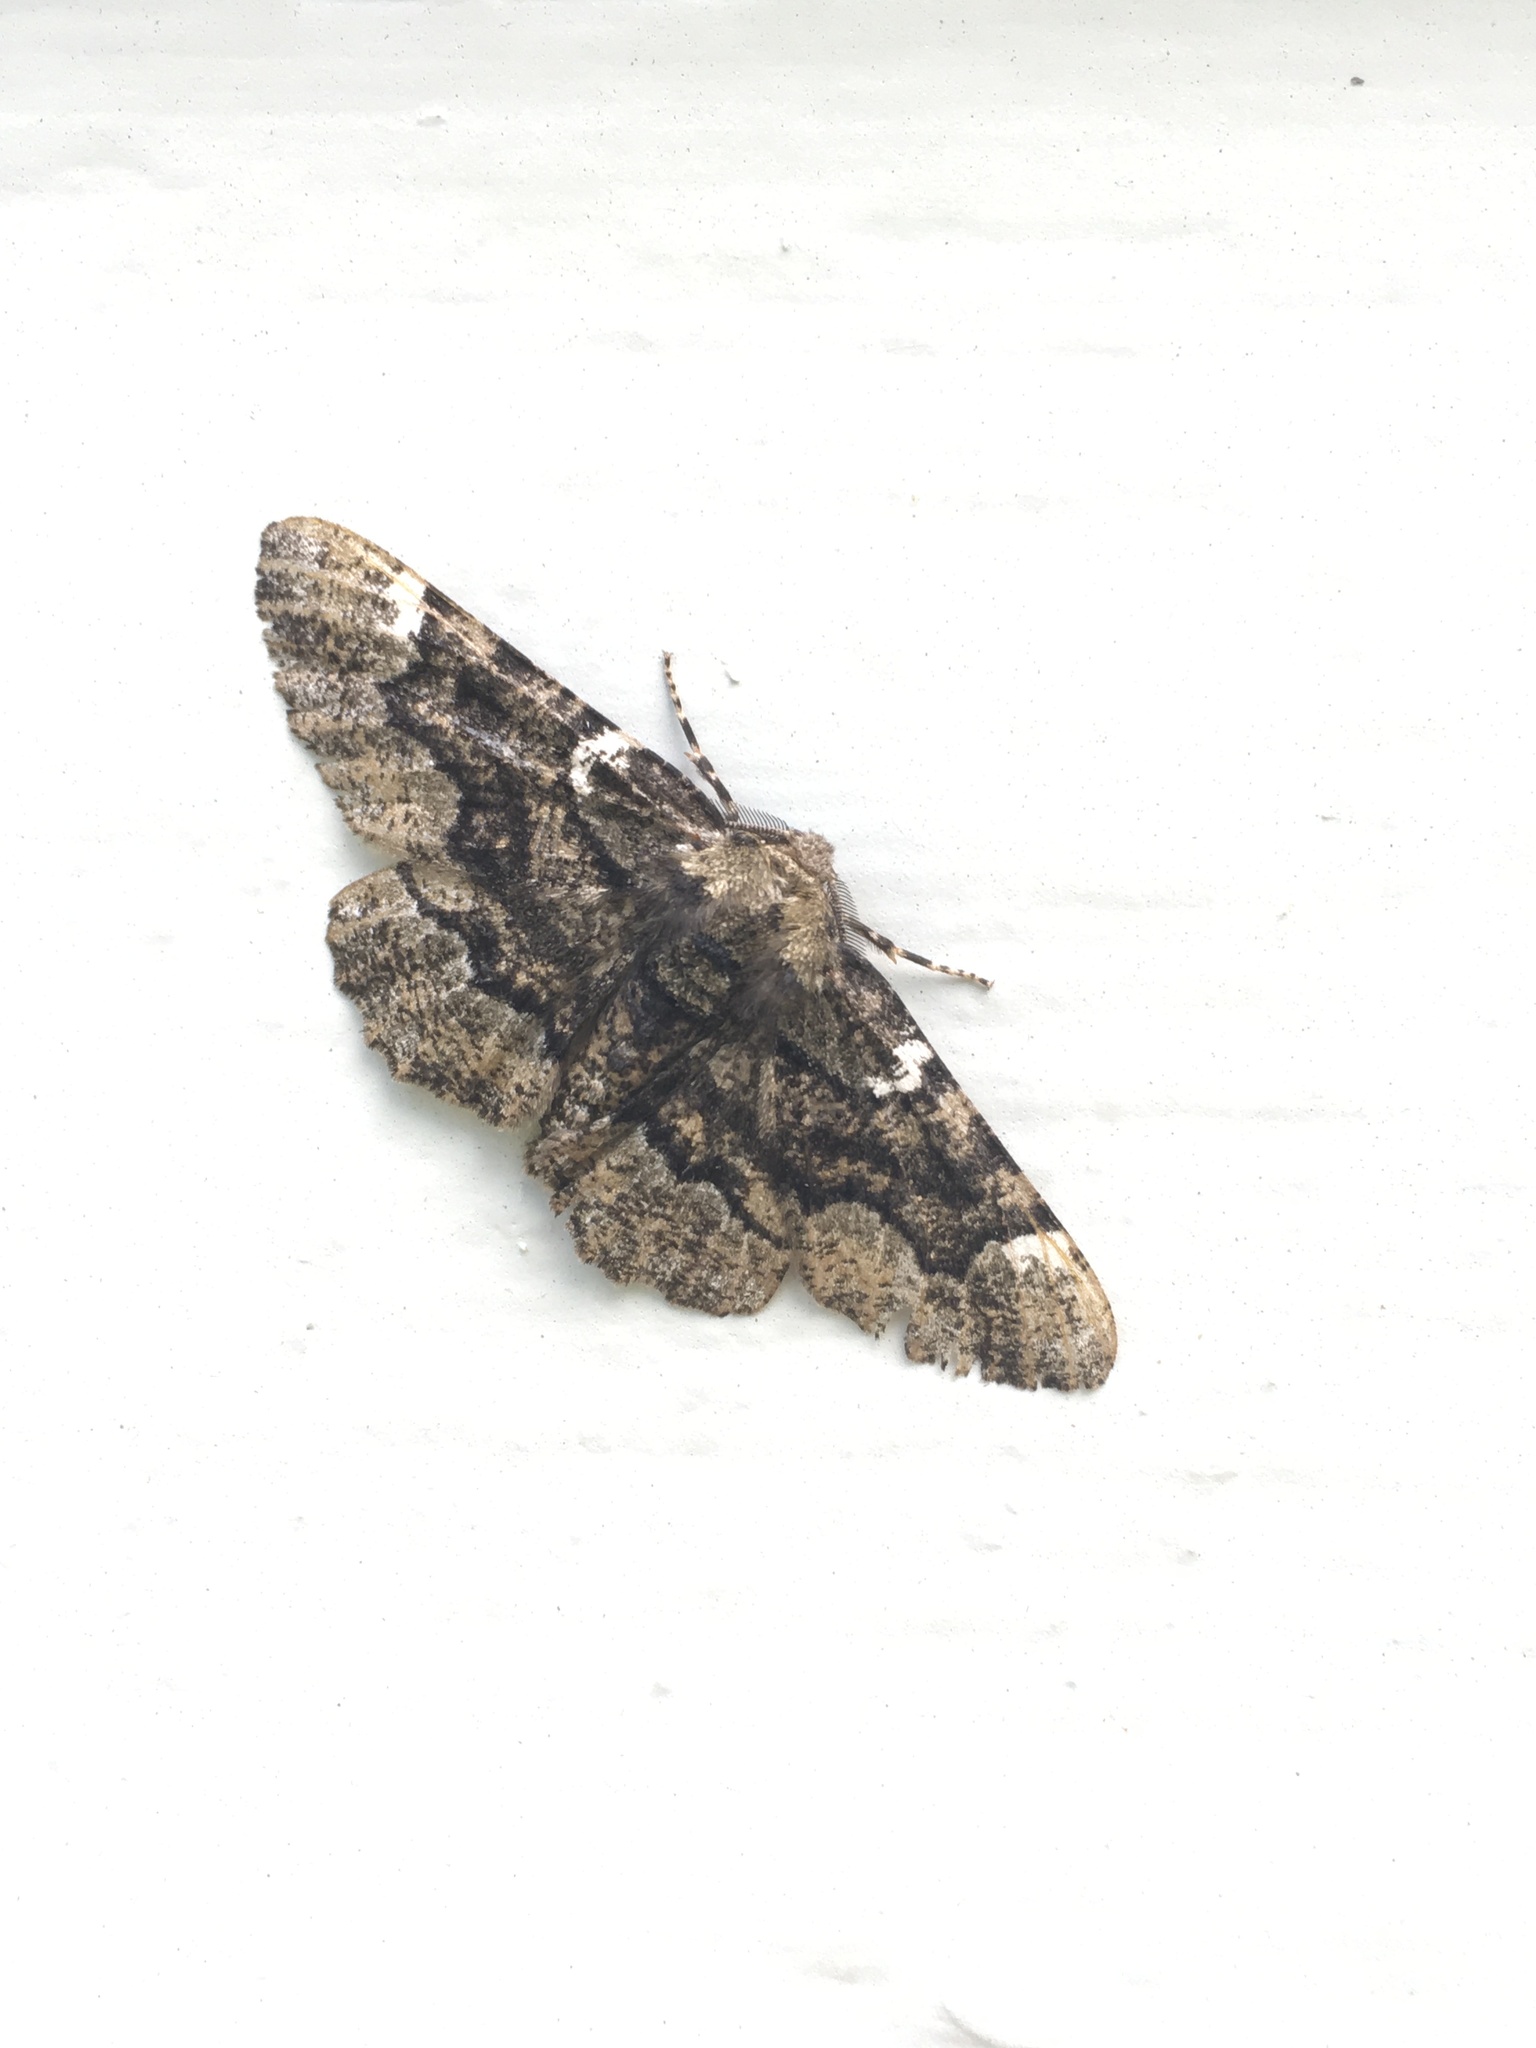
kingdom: Animalia
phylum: Arthropoda
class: Insecta
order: Lepidoptera
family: Geometridae
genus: Phaeoura
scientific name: Phaeoura quernaria
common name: Oak beauty
